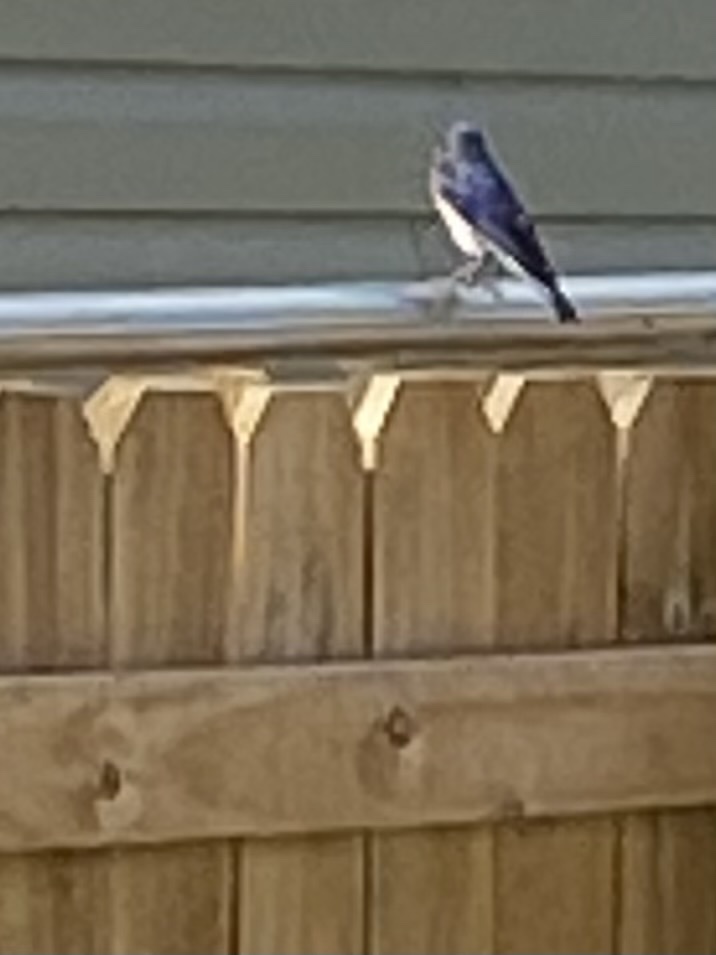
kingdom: Animalia
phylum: Chordata
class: Aves
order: Passeriformes
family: Turdidae
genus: Sialia
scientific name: Sialia sialis
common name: Eastern bluebird
